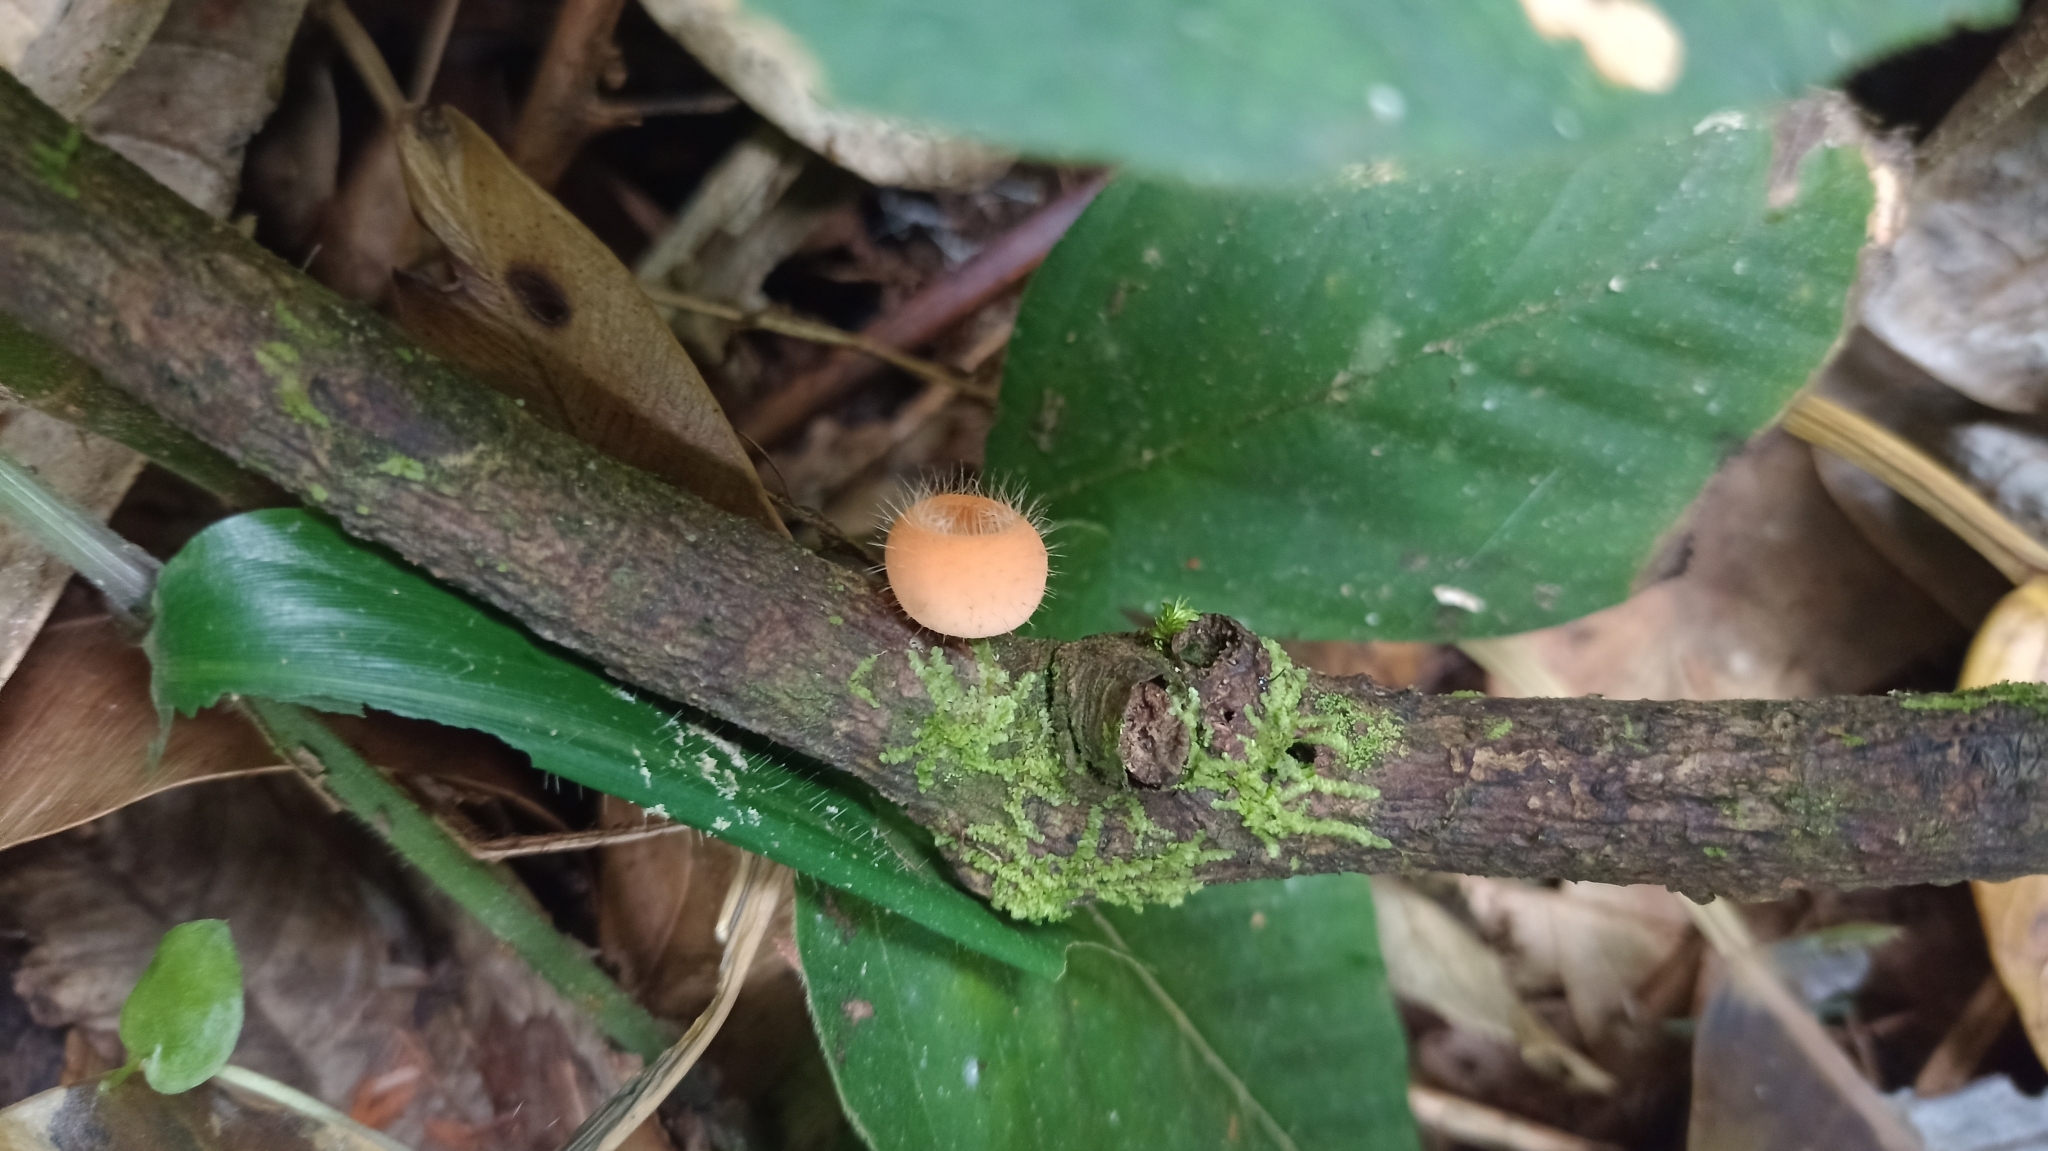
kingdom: Fungi
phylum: Ascomycota
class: Pezizomycetes
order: Pezizales
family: Sarcoscyphaceae
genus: Cookeina
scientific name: Cookeina tricholoma
